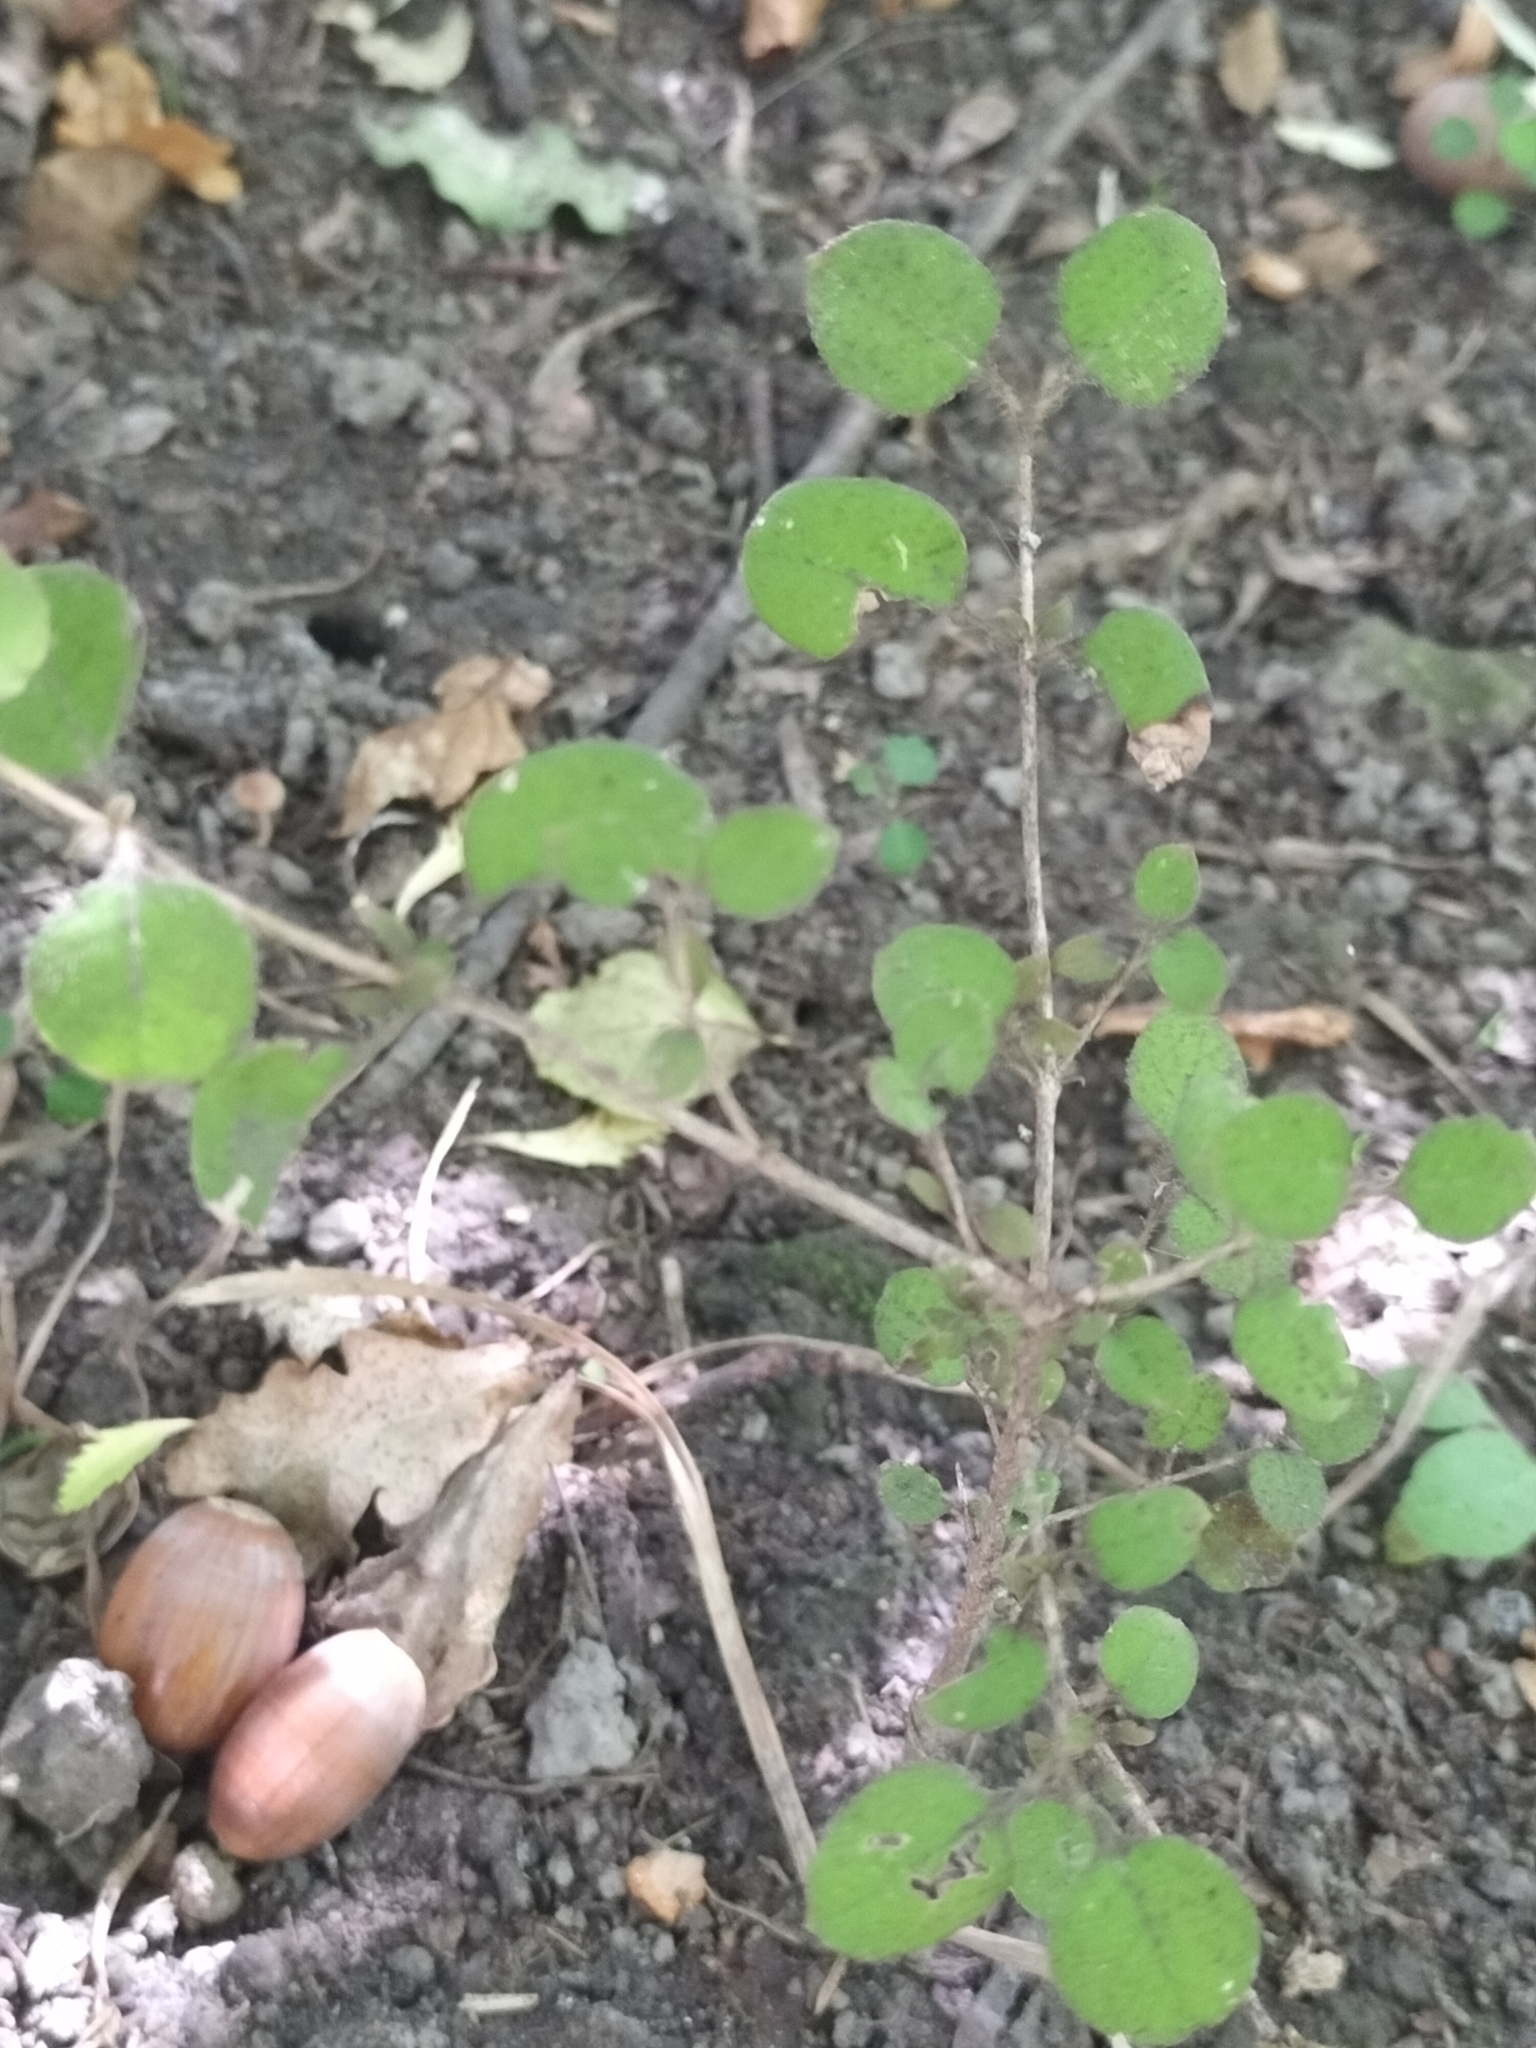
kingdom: Plantae
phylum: Tracheophyta
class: Magnoliopsida
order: Gentianales
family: Rubiaceae
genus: Coprosma
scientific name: Coprosma rotundifolia
